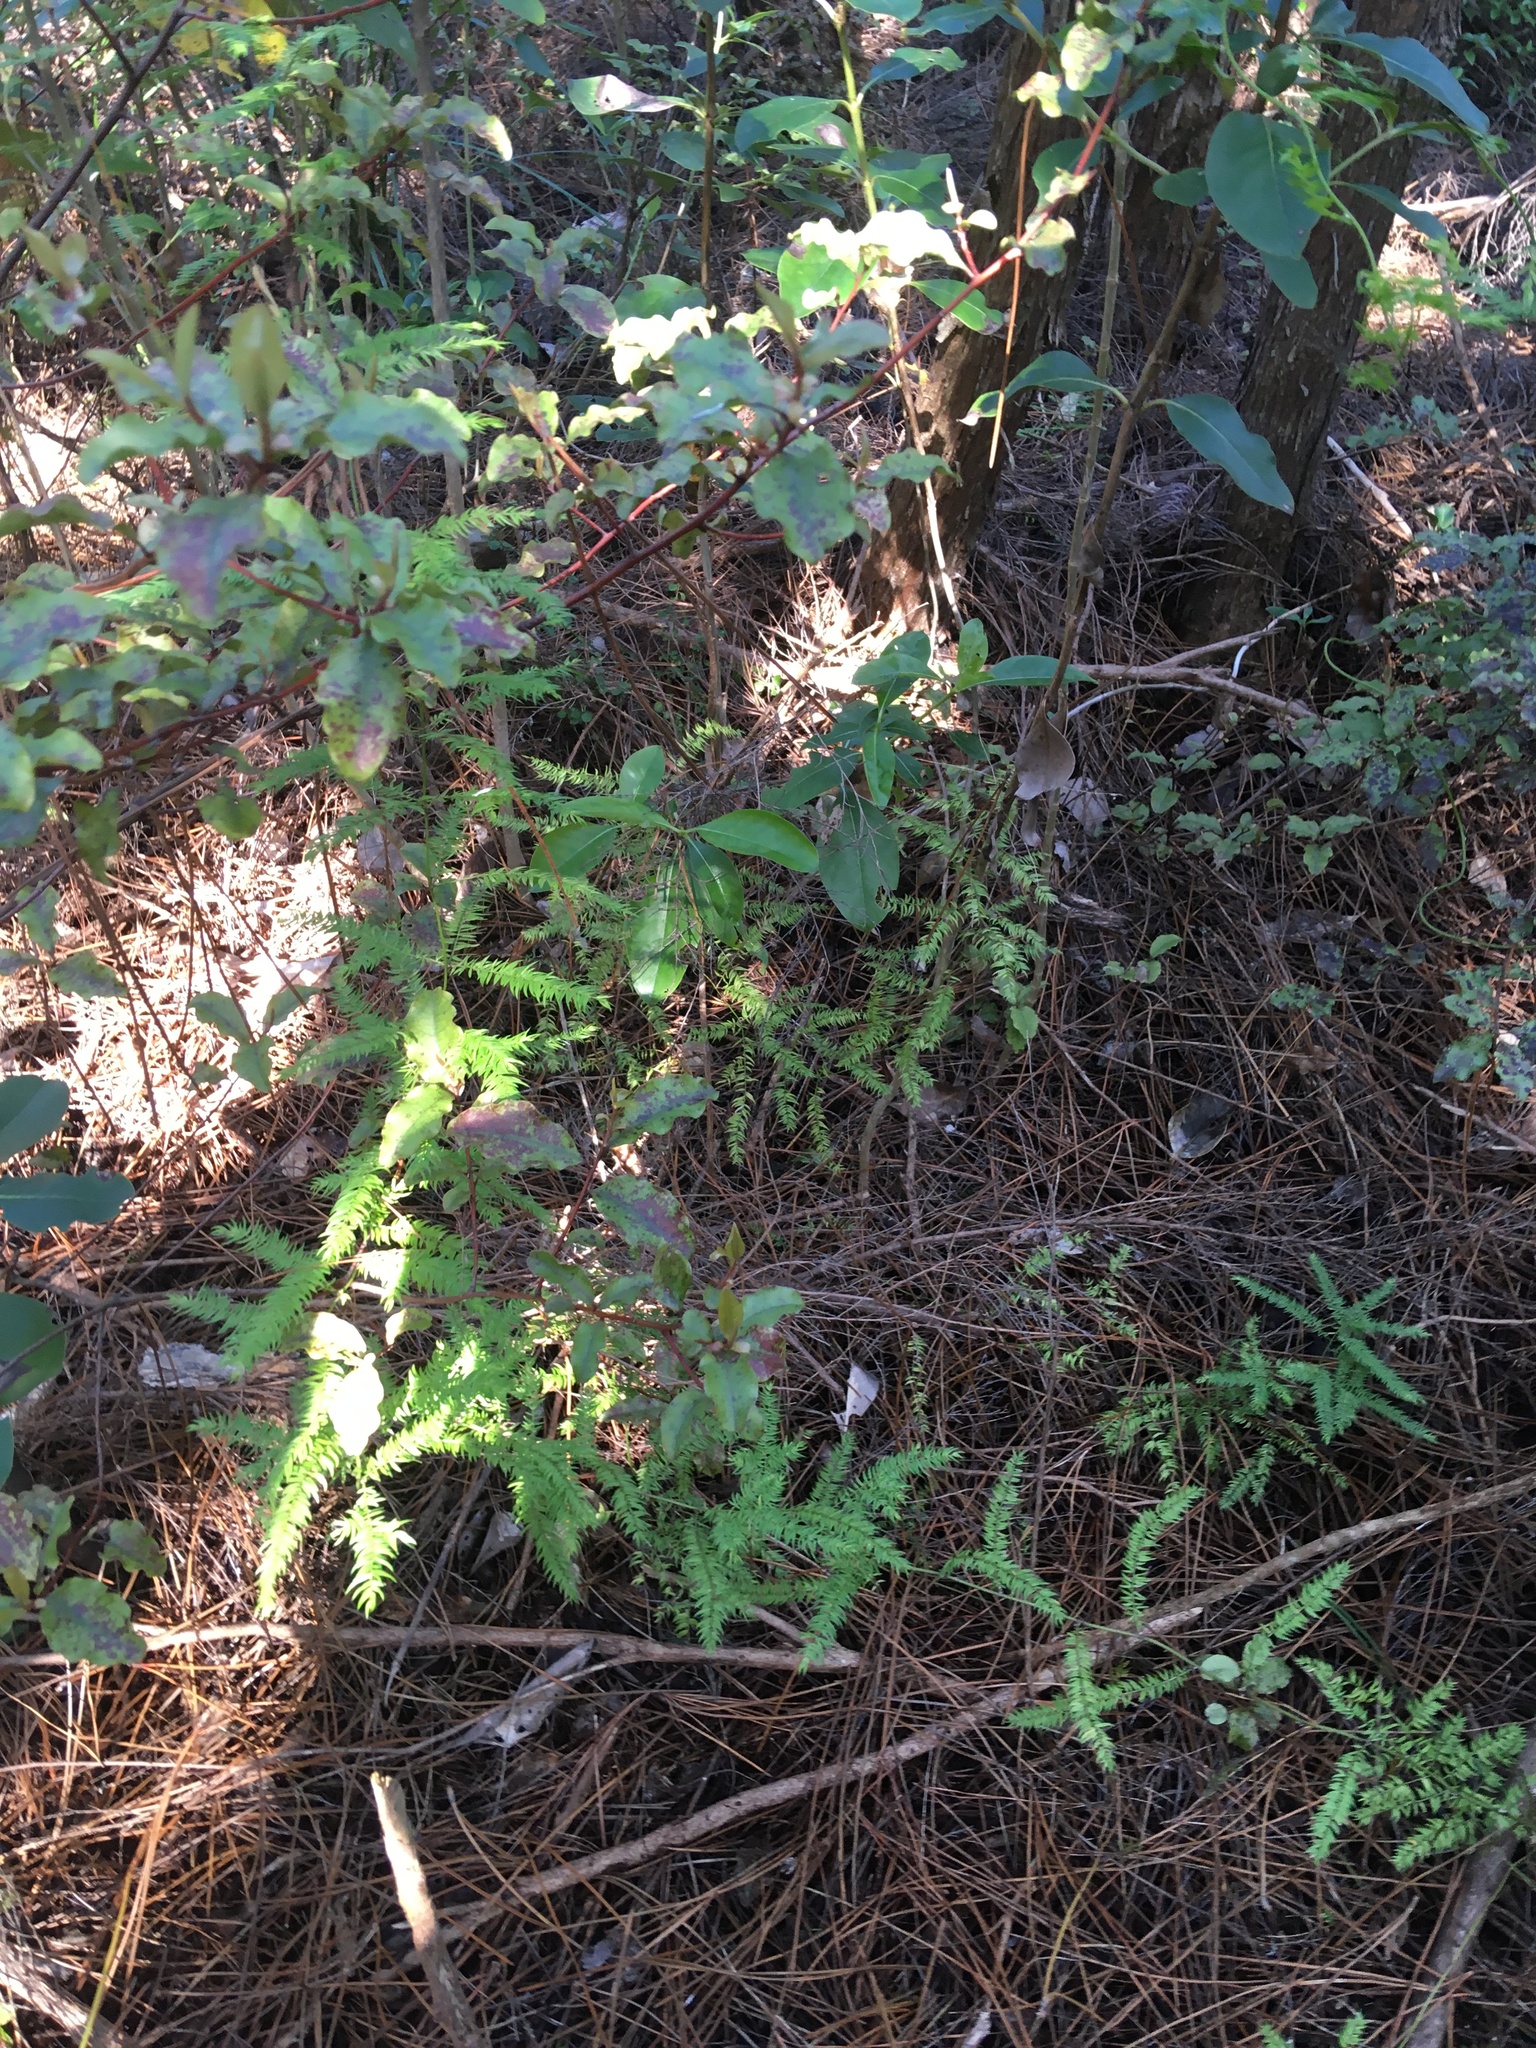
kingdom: Plantae
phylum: Tracheophyta
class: Liliopsida
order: Asparagales
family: Asparagaceae
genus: Asparagus
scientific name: Asparagus scandens
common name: Asparagus-fern
